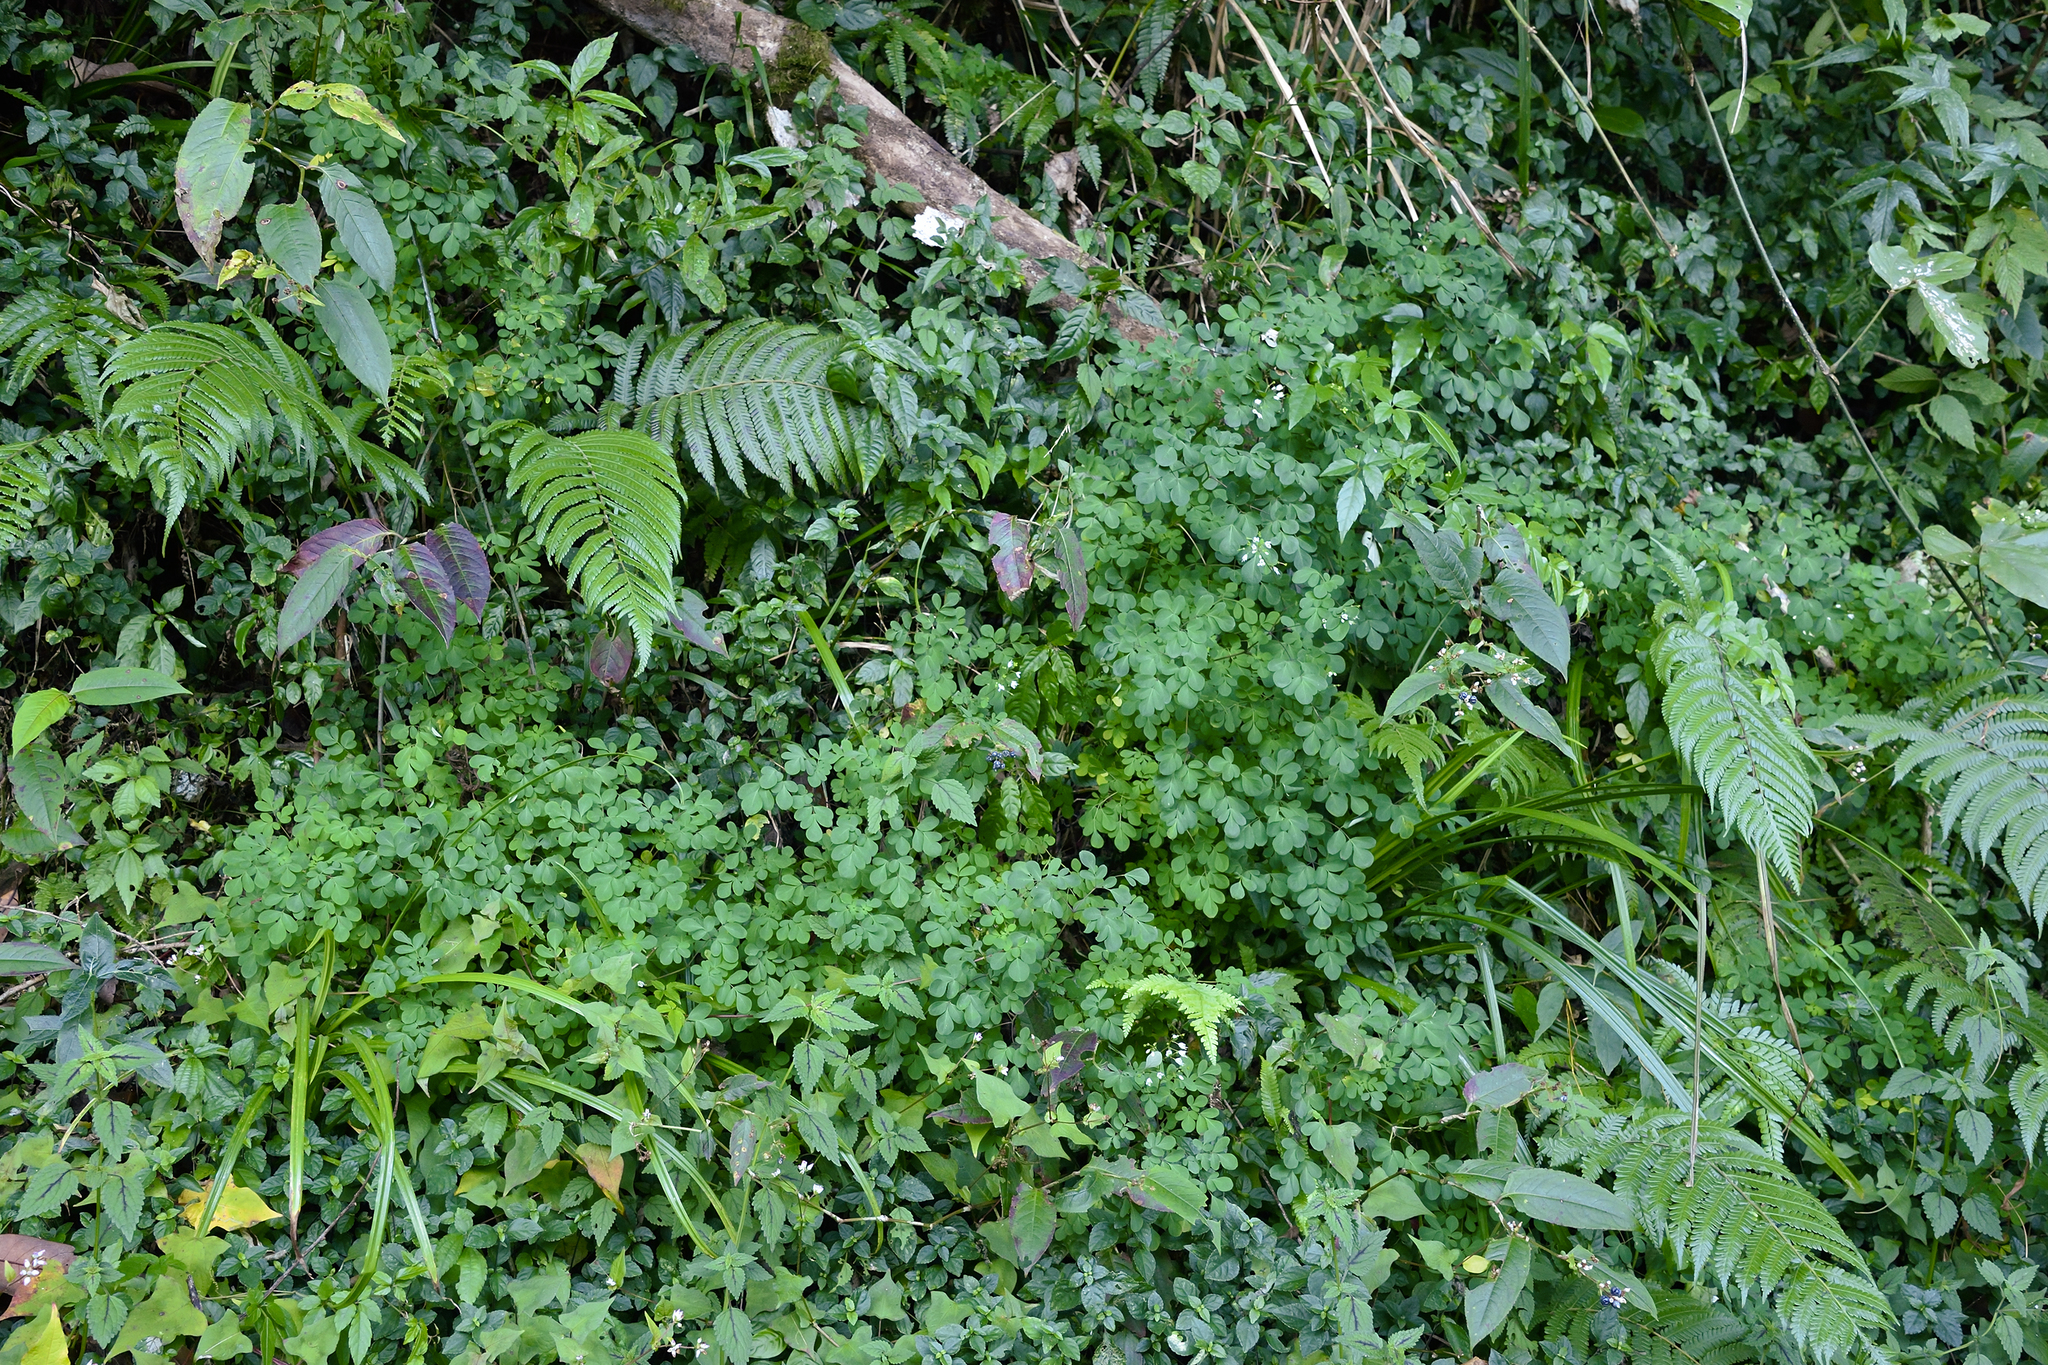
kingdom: Plantae
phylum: Tracheophyta
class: Magnoliopsida
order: Sapindales
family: Rutaceae
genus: Boenninghausenia
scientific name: Boenninghausenia albiflora
